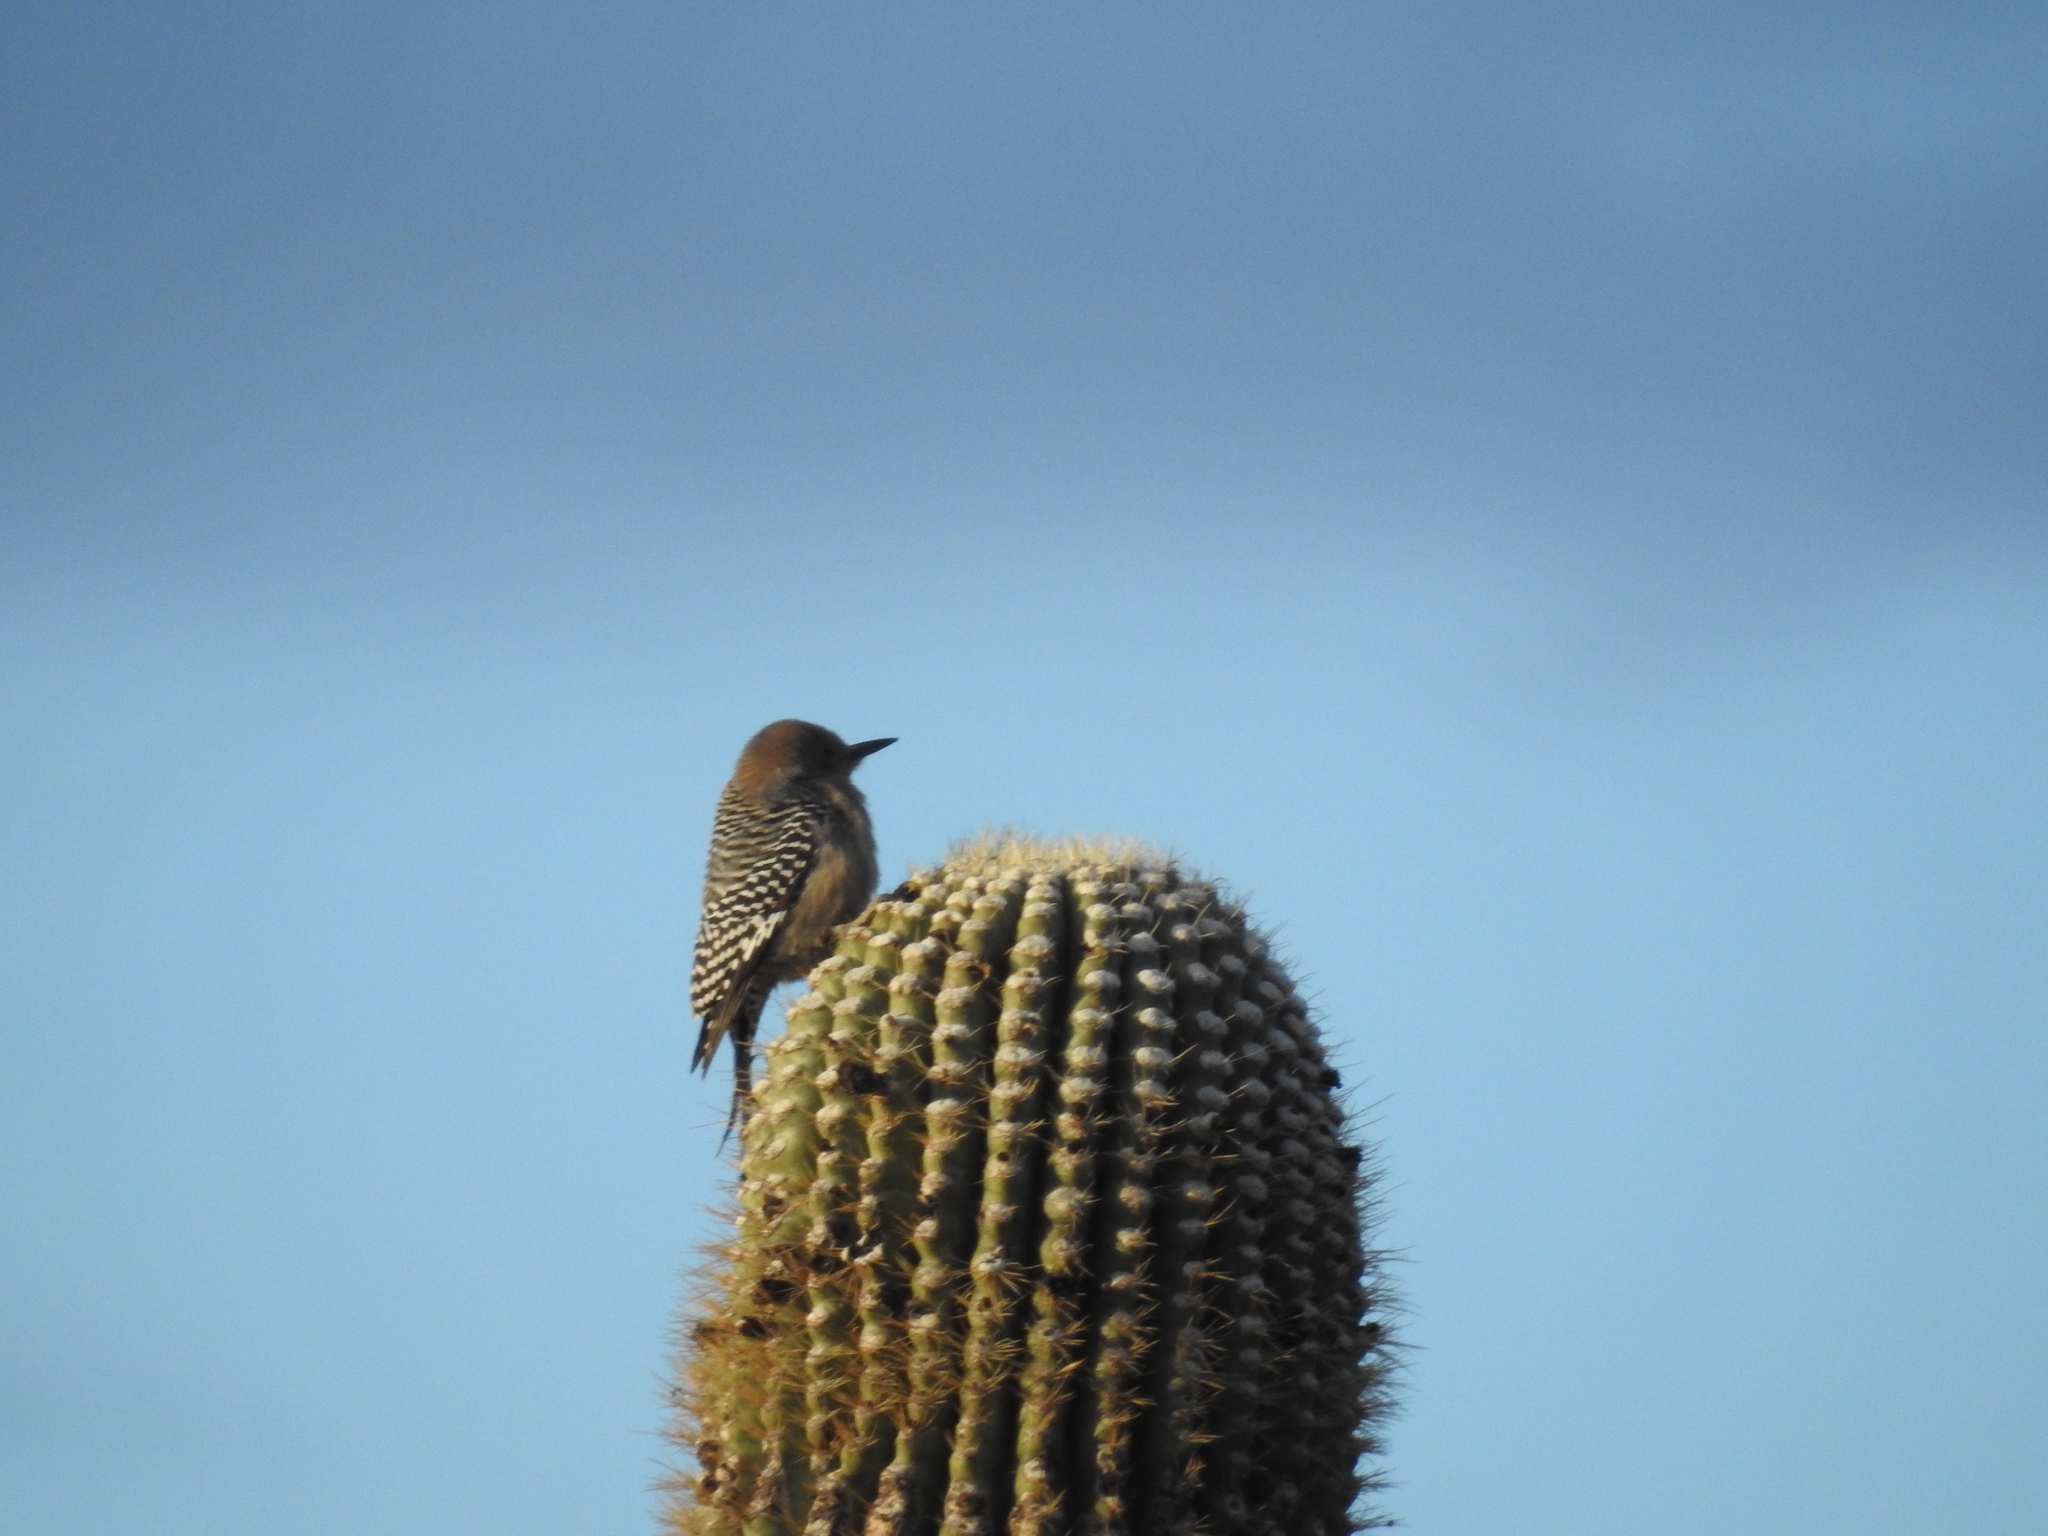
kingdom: Animalia
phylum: Chordata
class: Aves
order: Piciformes
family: Picidae
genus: Melanerpes
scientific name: Melanerpes uropygialis
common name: Gila woodpecker
